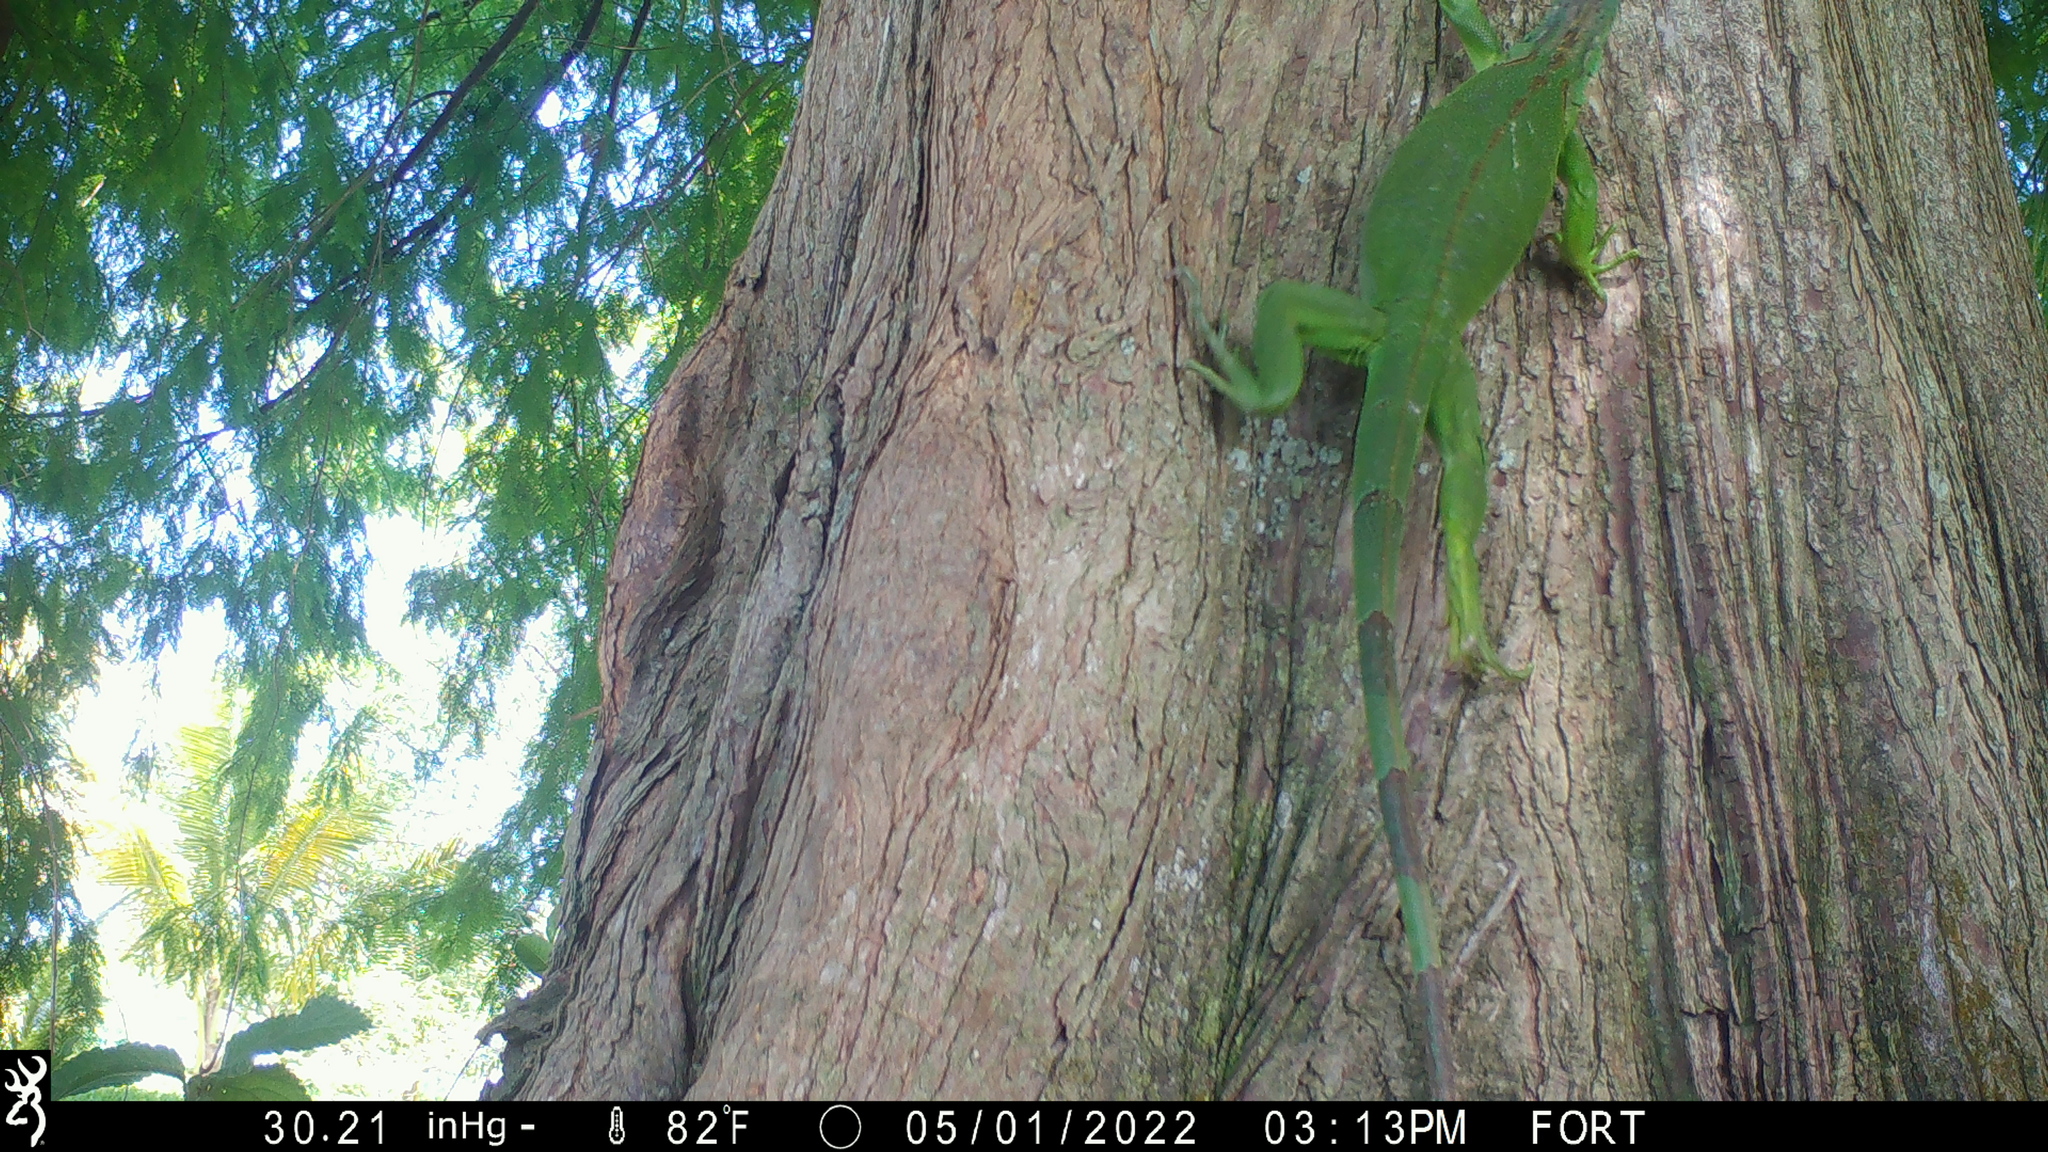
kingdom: Animalia
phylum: Chordata
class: Squamata
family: Iguanidae
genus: Iguana
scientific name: Iguana iguana
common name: Green iguana
